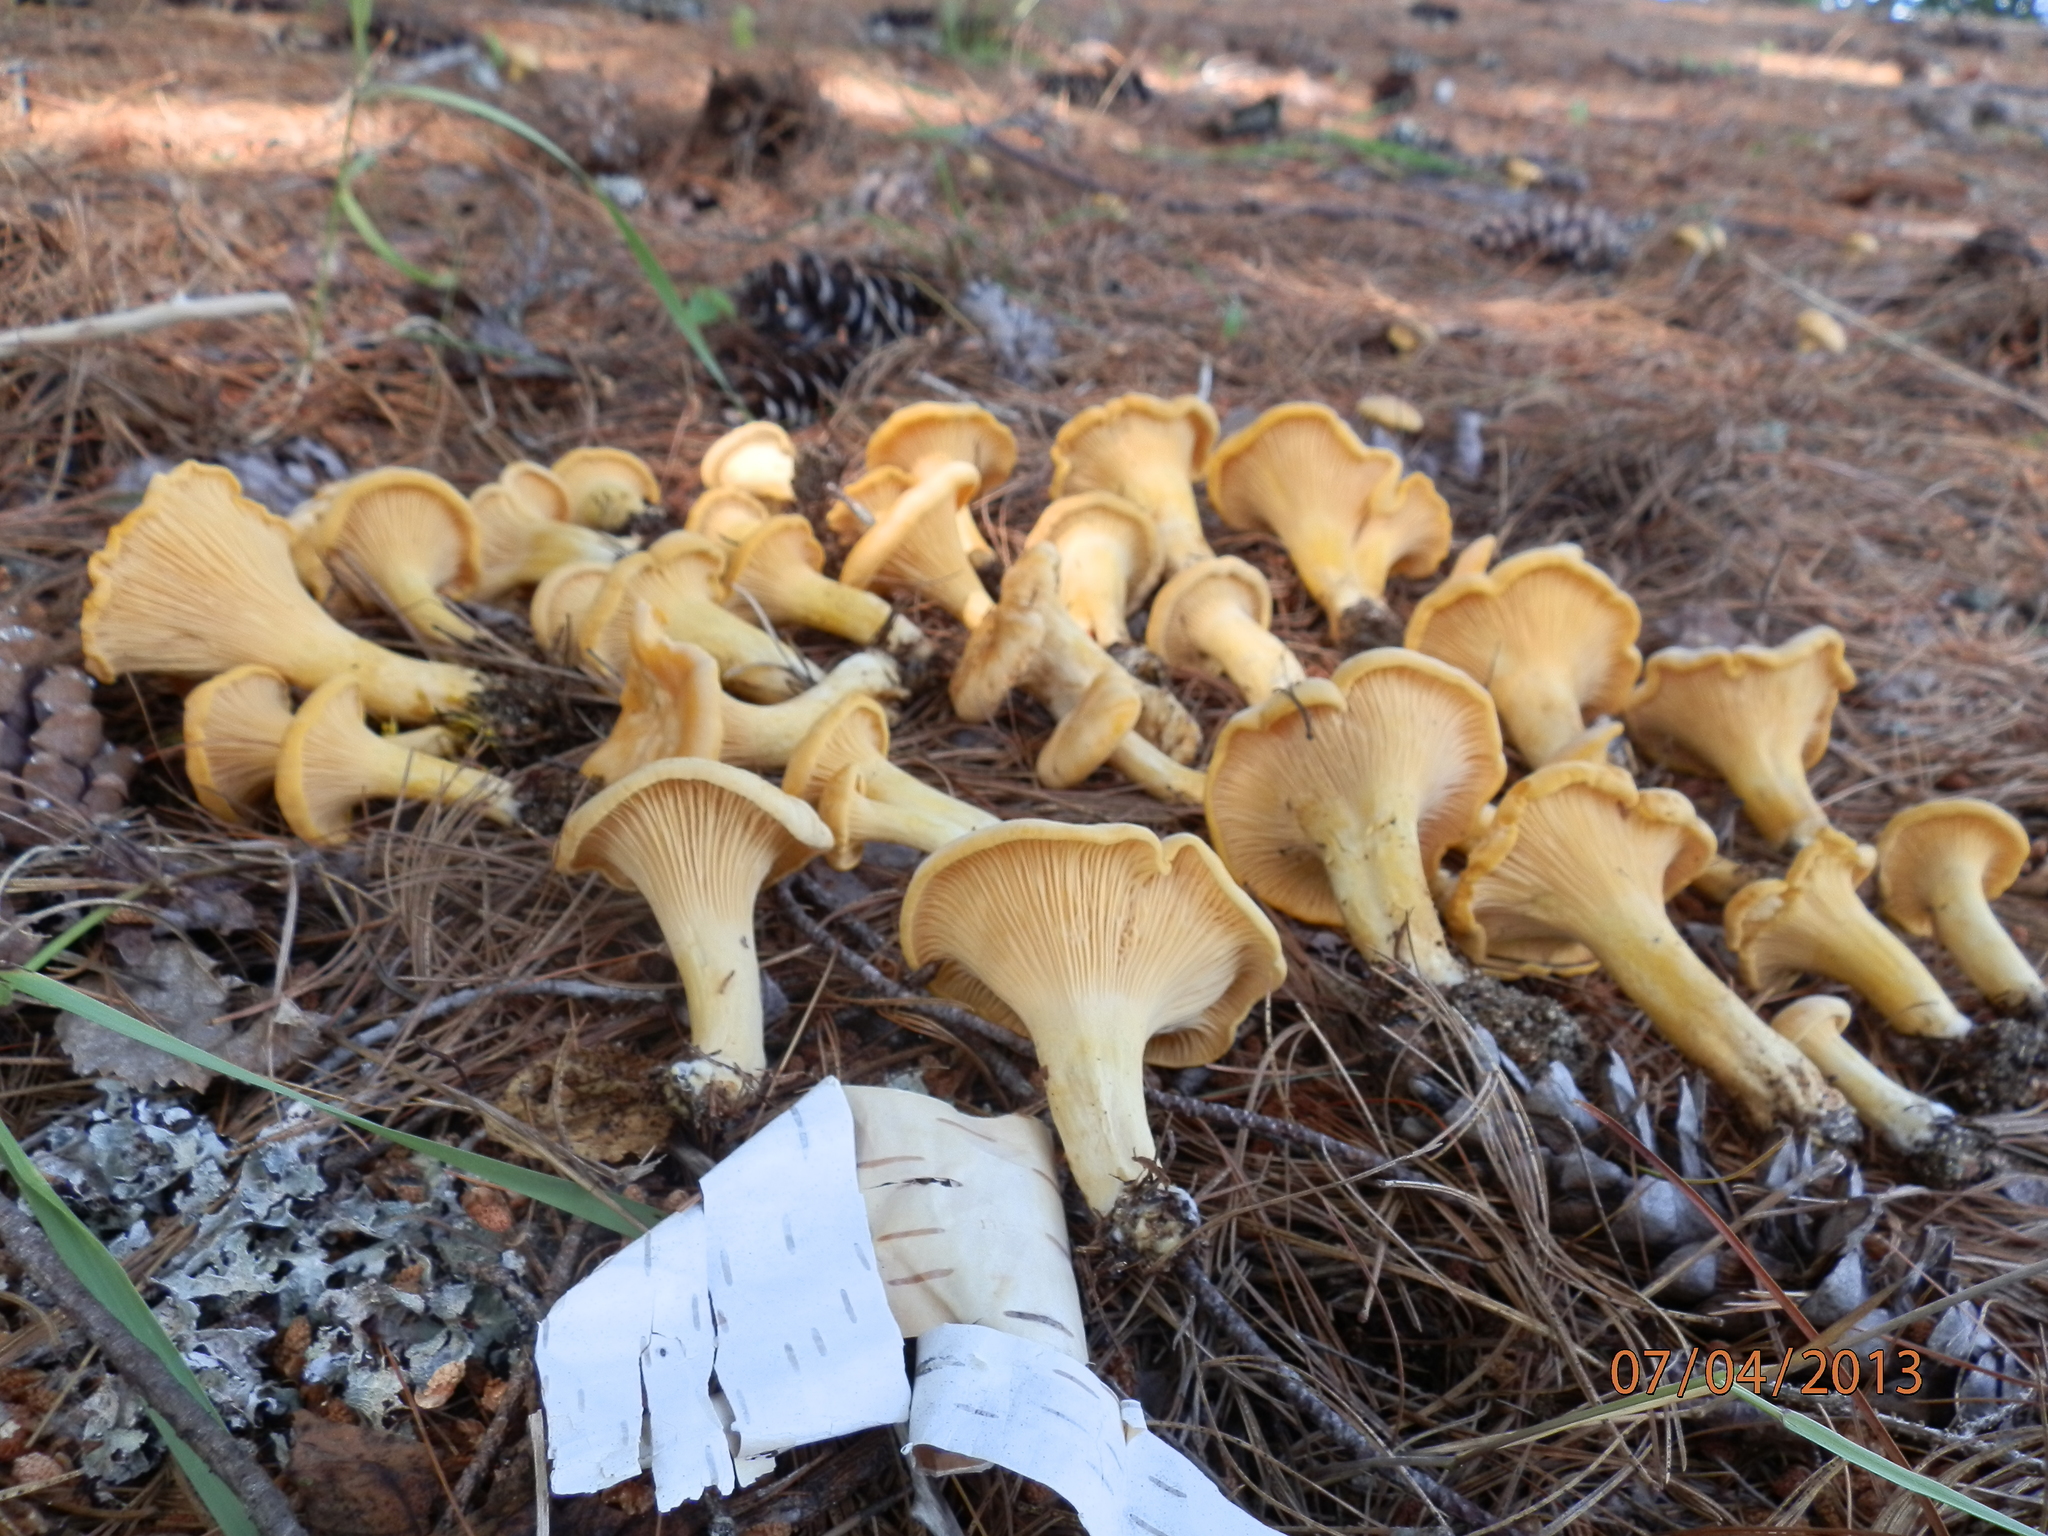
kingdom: Fungi
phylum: Basidiomycota
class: Agaricomycetes
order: Cantharellales
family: Hydnaceae
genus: Cantharellus
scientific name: Cantharellus enelensis
